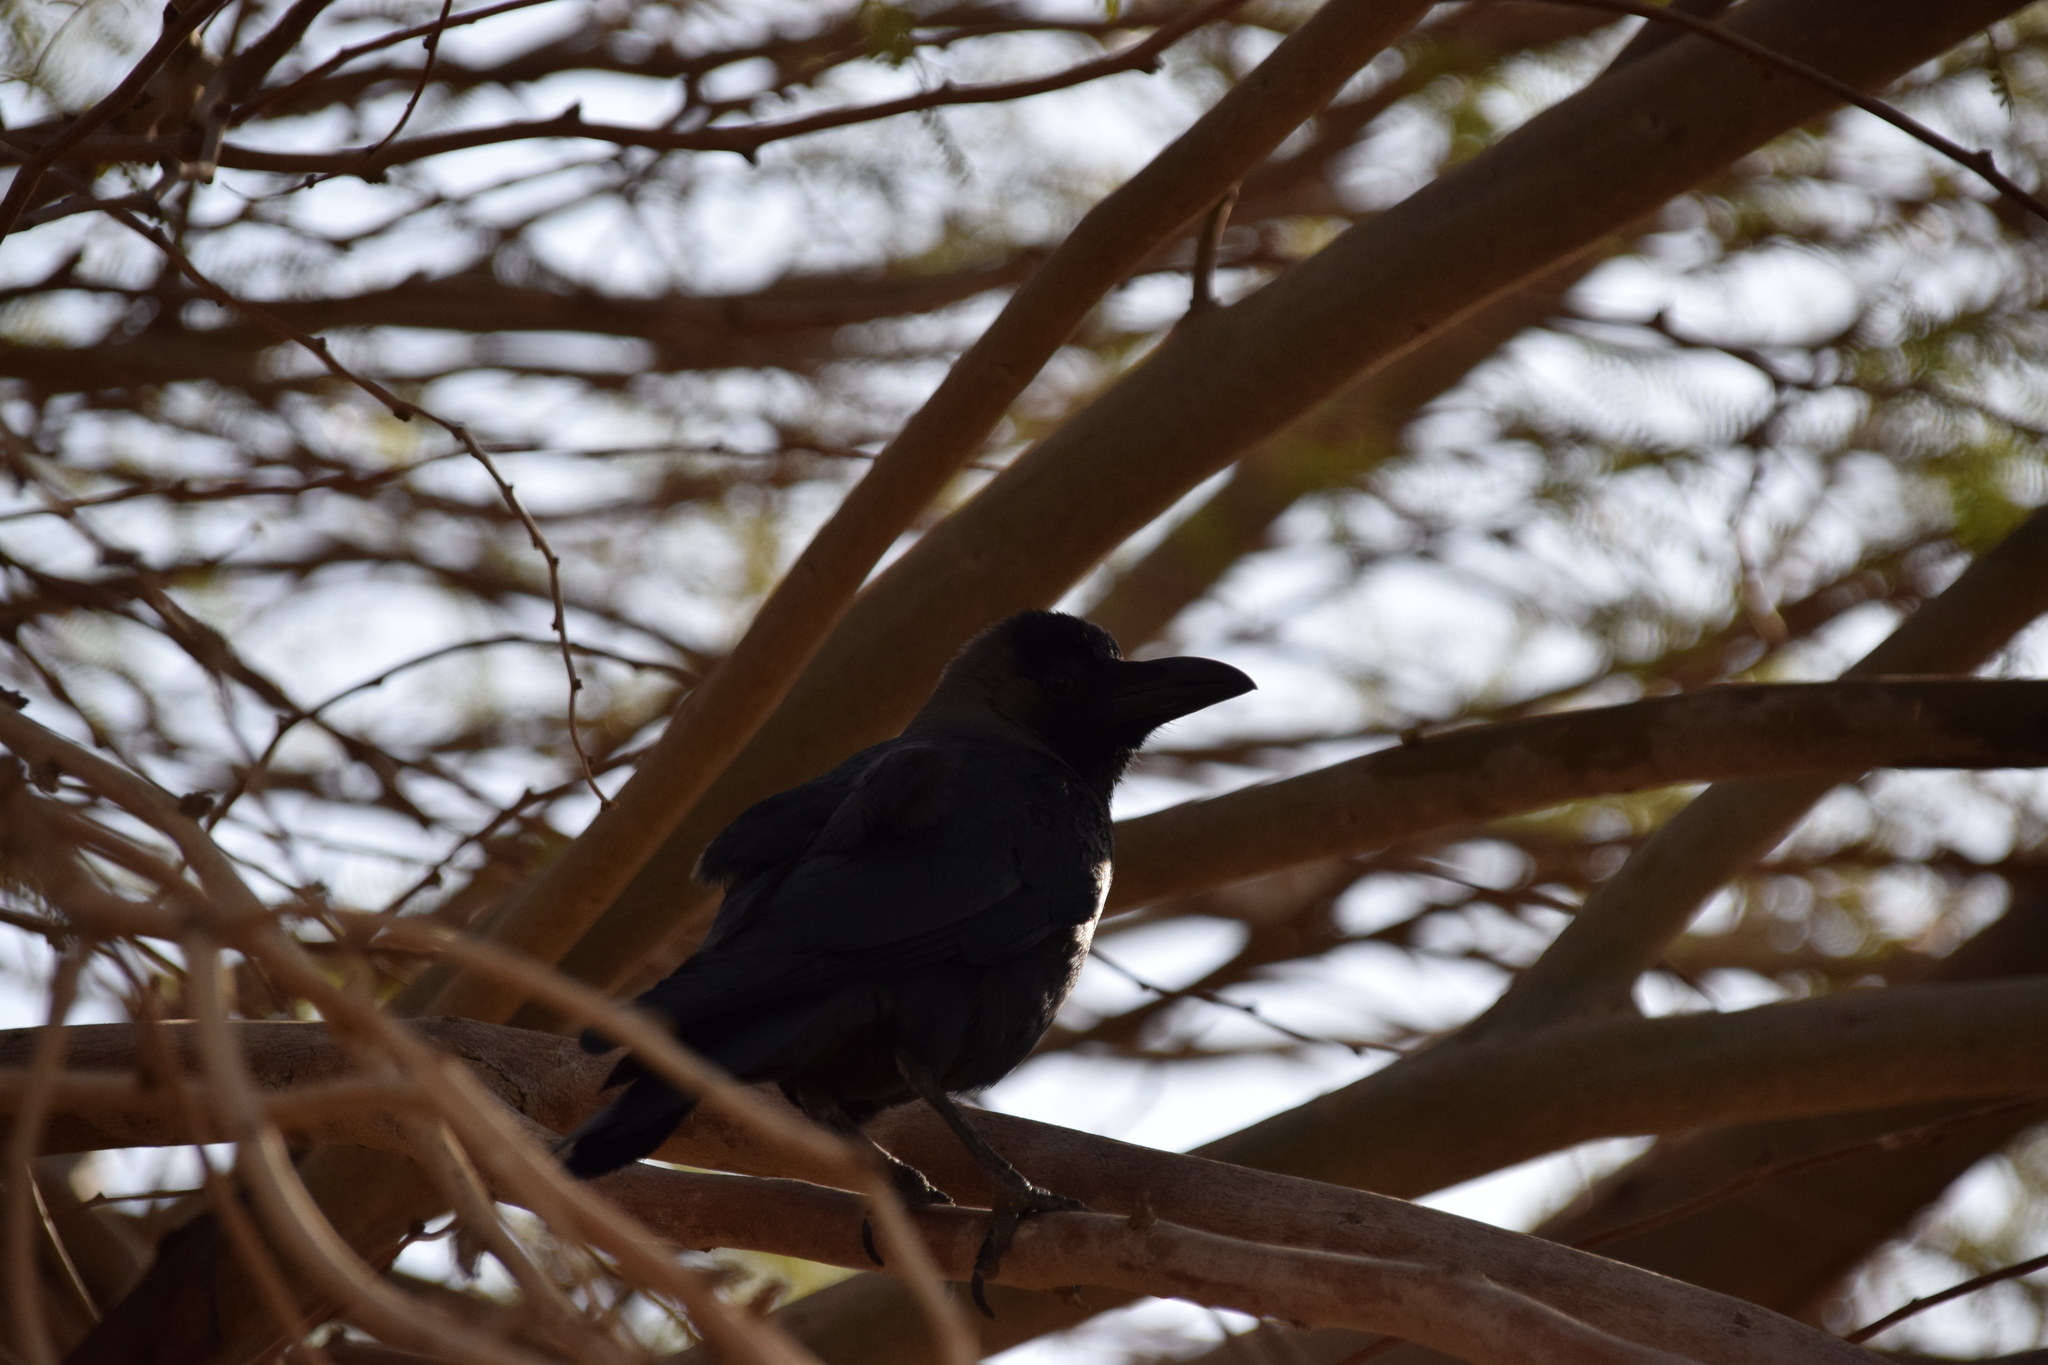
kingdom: Animalia
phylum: Chordata
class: Aves
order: Passeriformes
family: Corvidae
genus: Corvus
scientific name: Corvus splendens
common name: House crow
